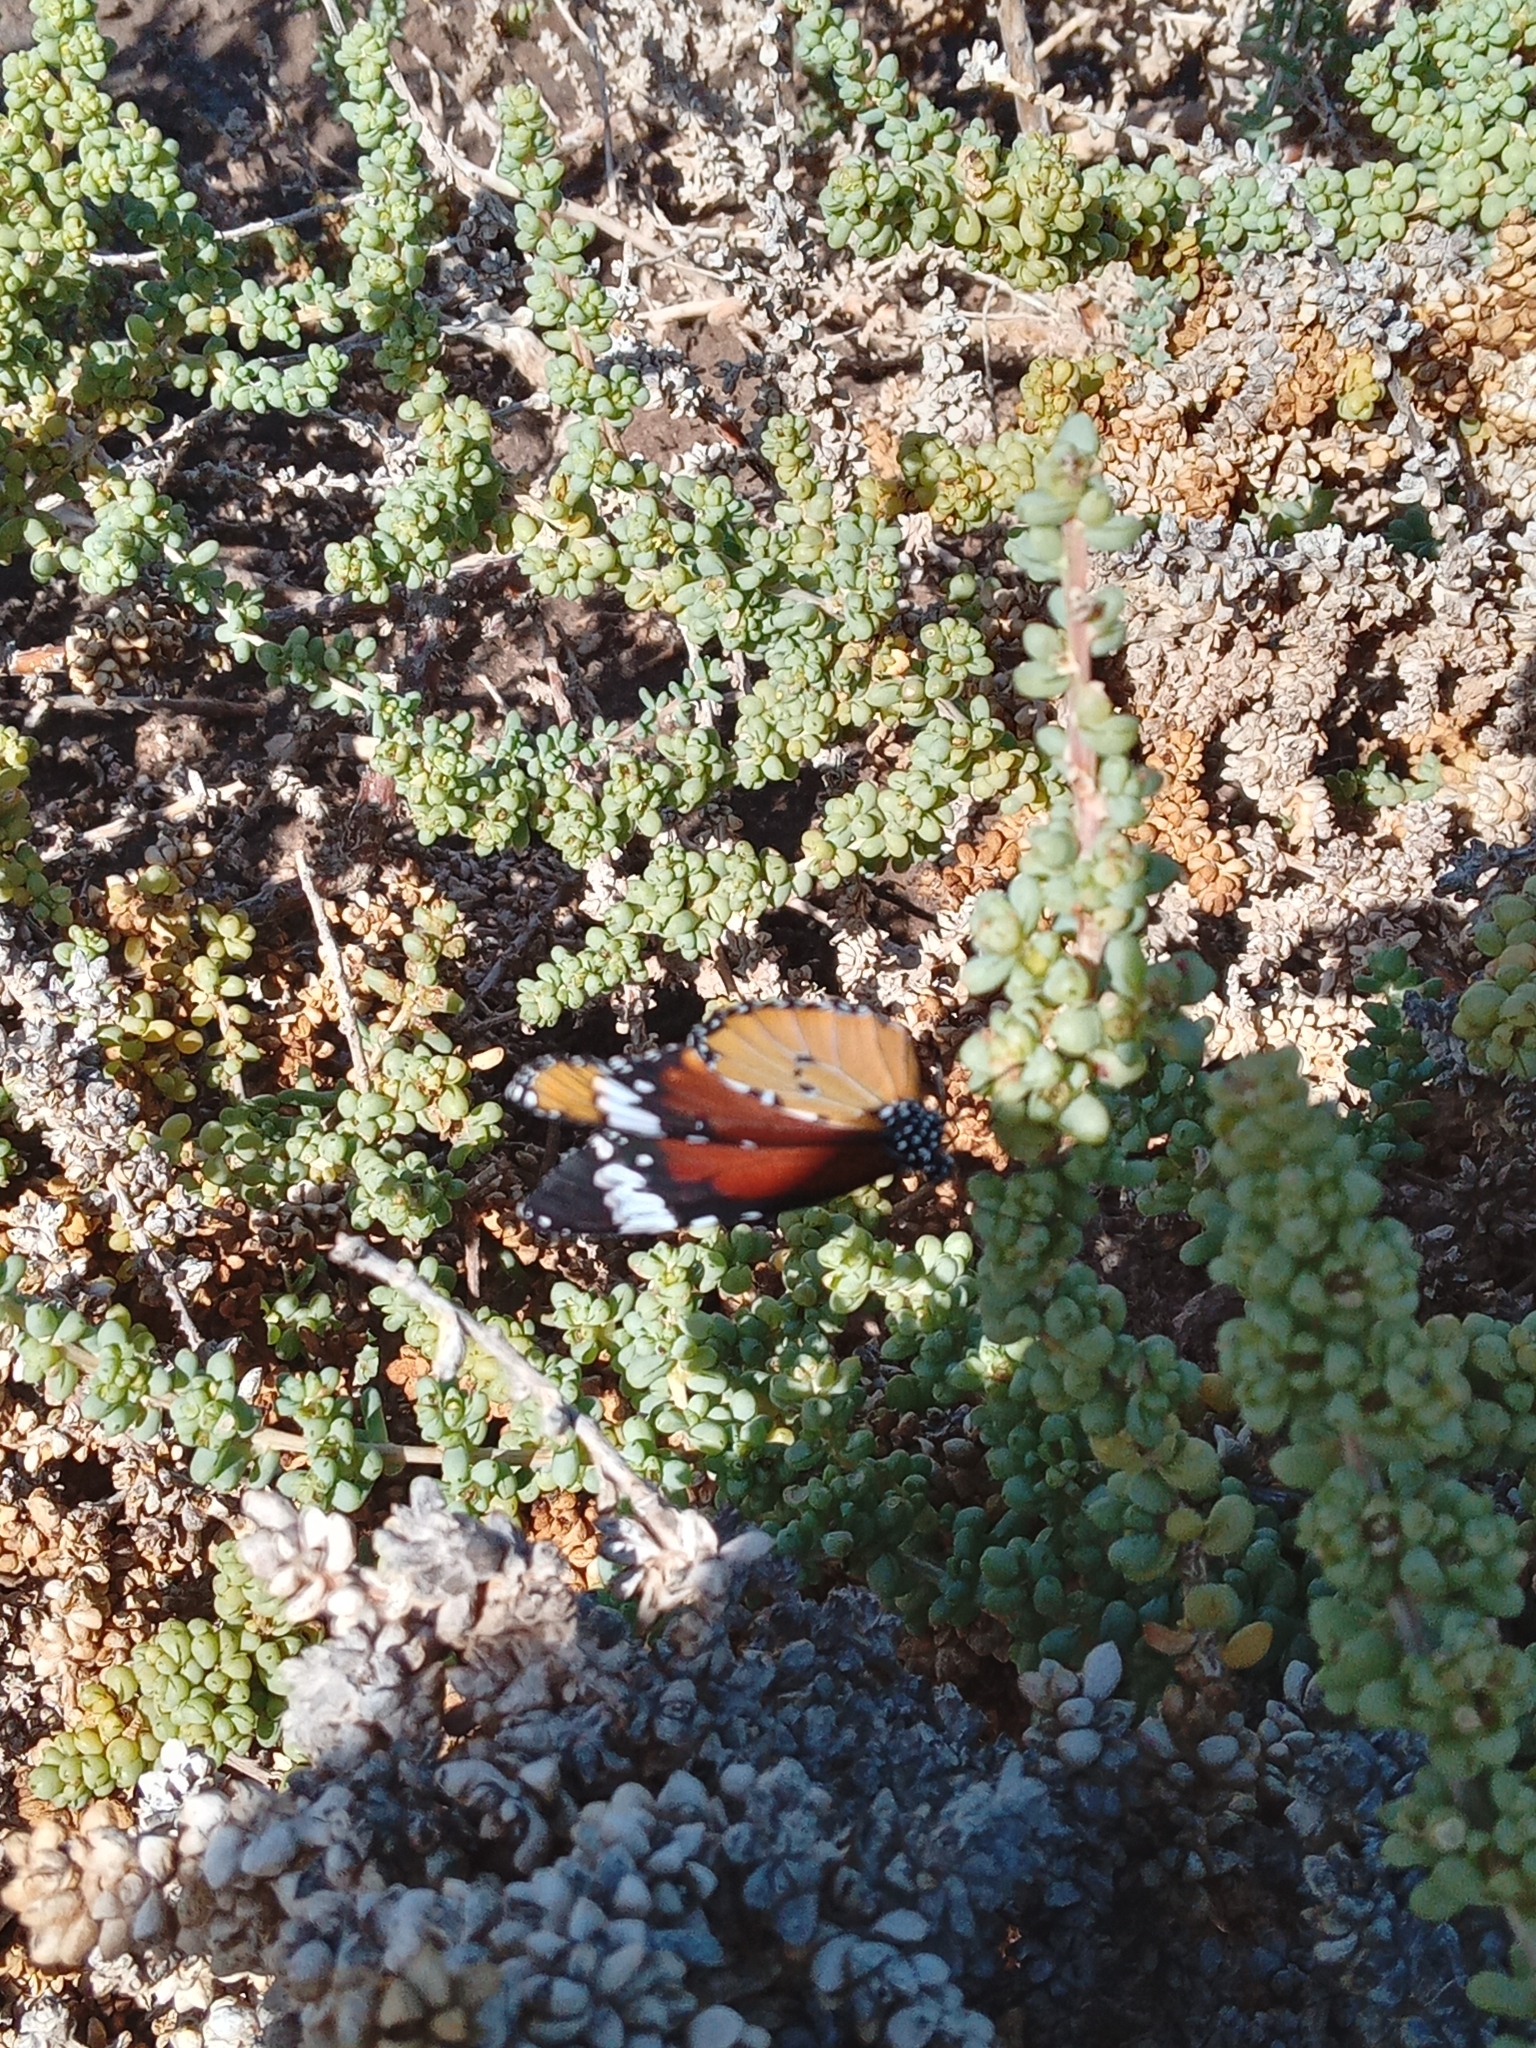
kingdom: Animalia
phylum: Arthropoda
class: Insecta
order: Lepidoptera
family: Nymphalidae
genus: Danaus
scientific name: Danaus chrysippus
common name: Plain tiger
